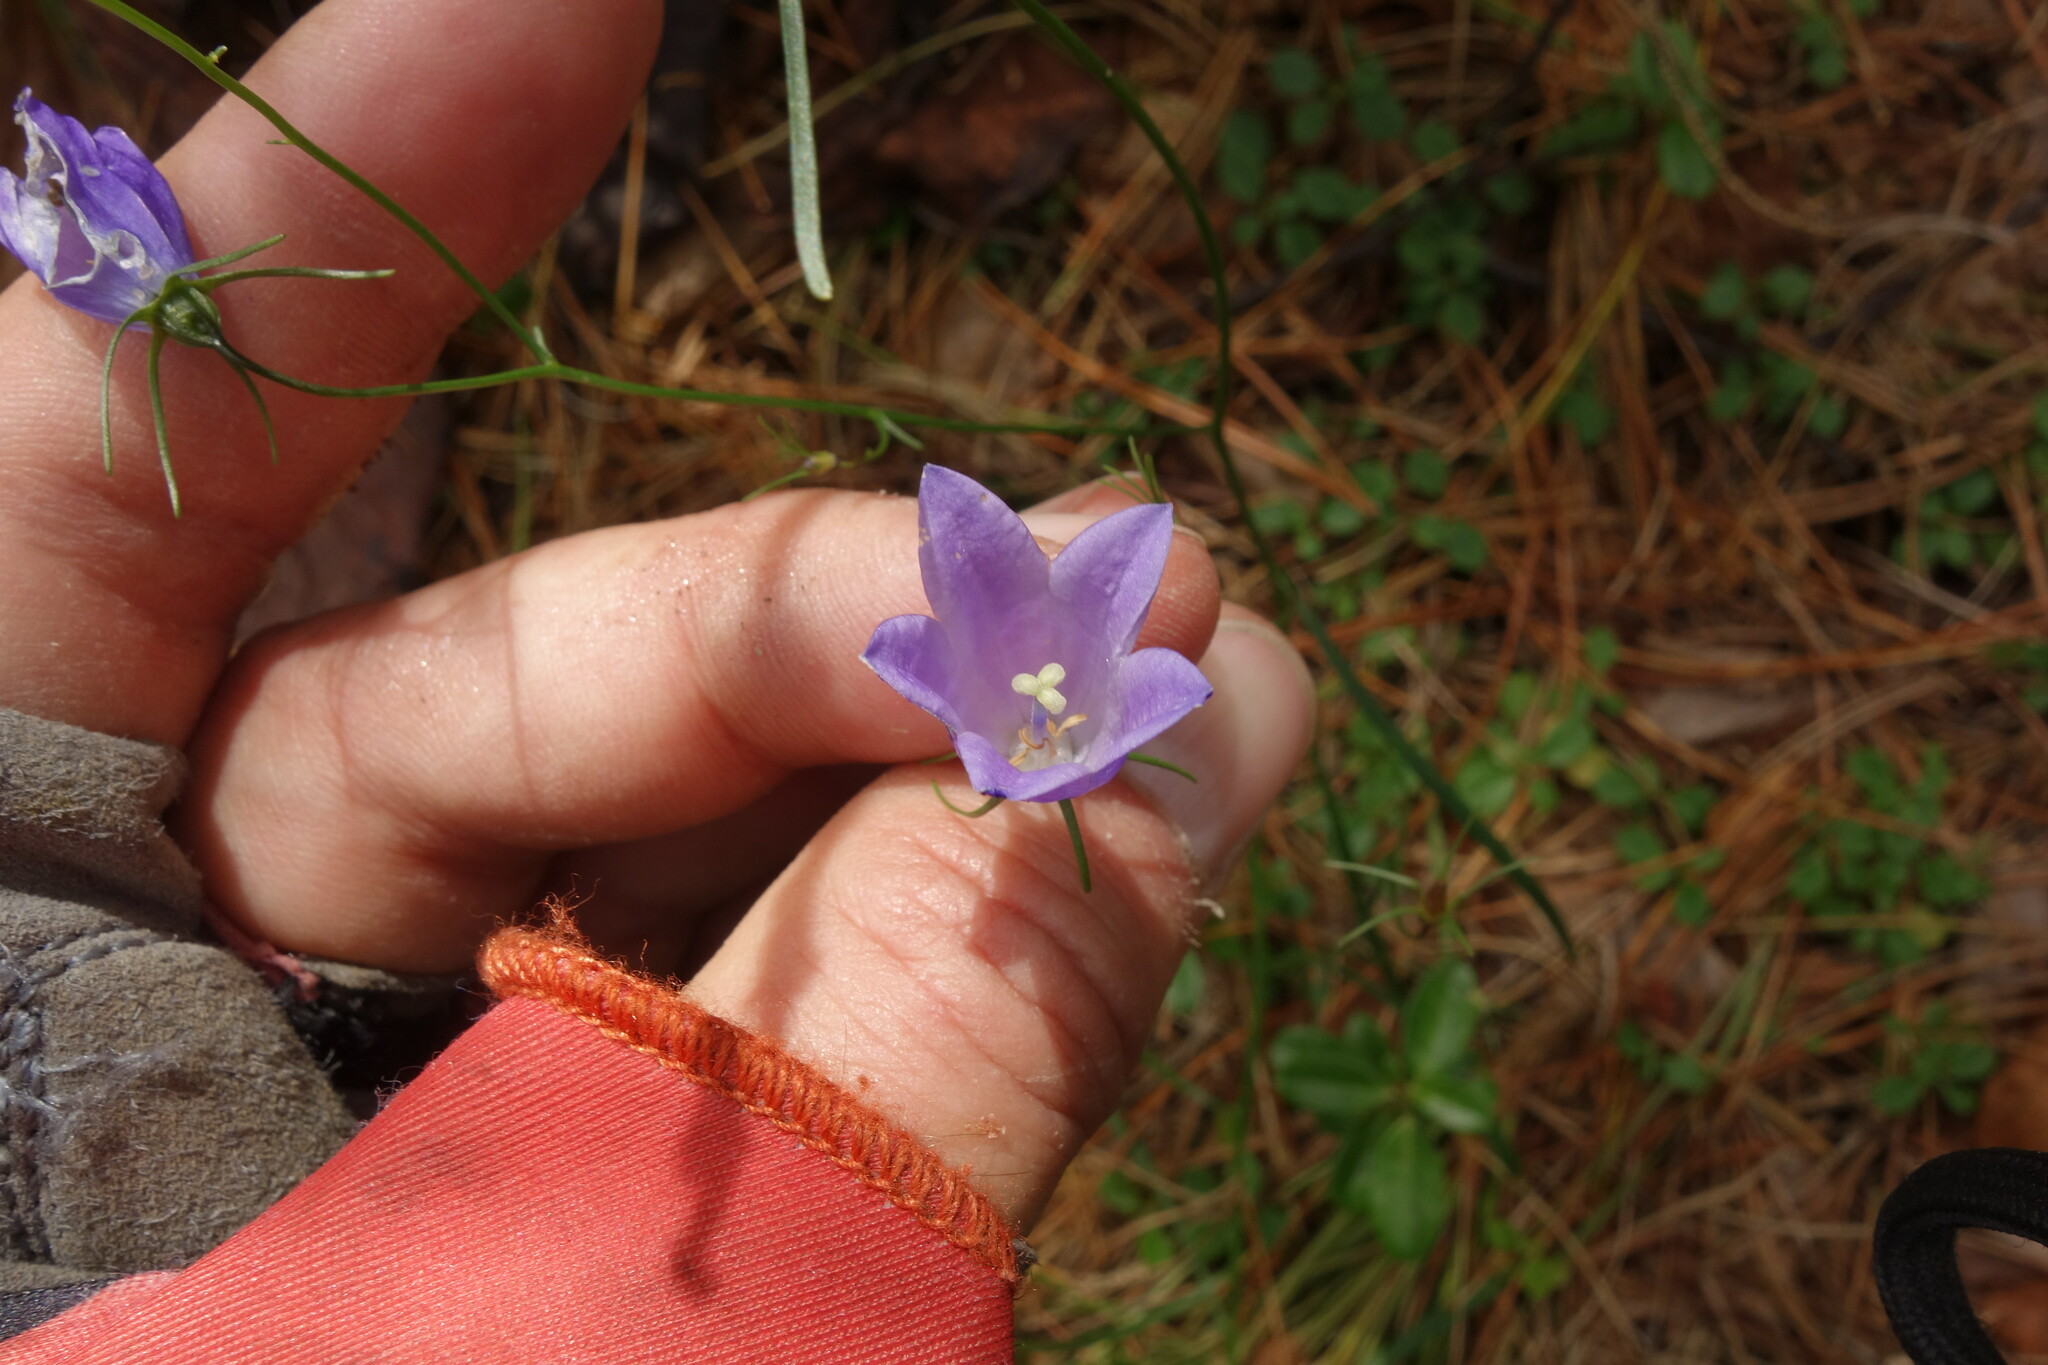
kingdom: Plantae
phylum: Tracheophyta
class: Magnoliopsida
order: Asterales
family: Campanulaceae
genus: Campanula
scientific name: Campanula rotundifolia
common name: Harebell
